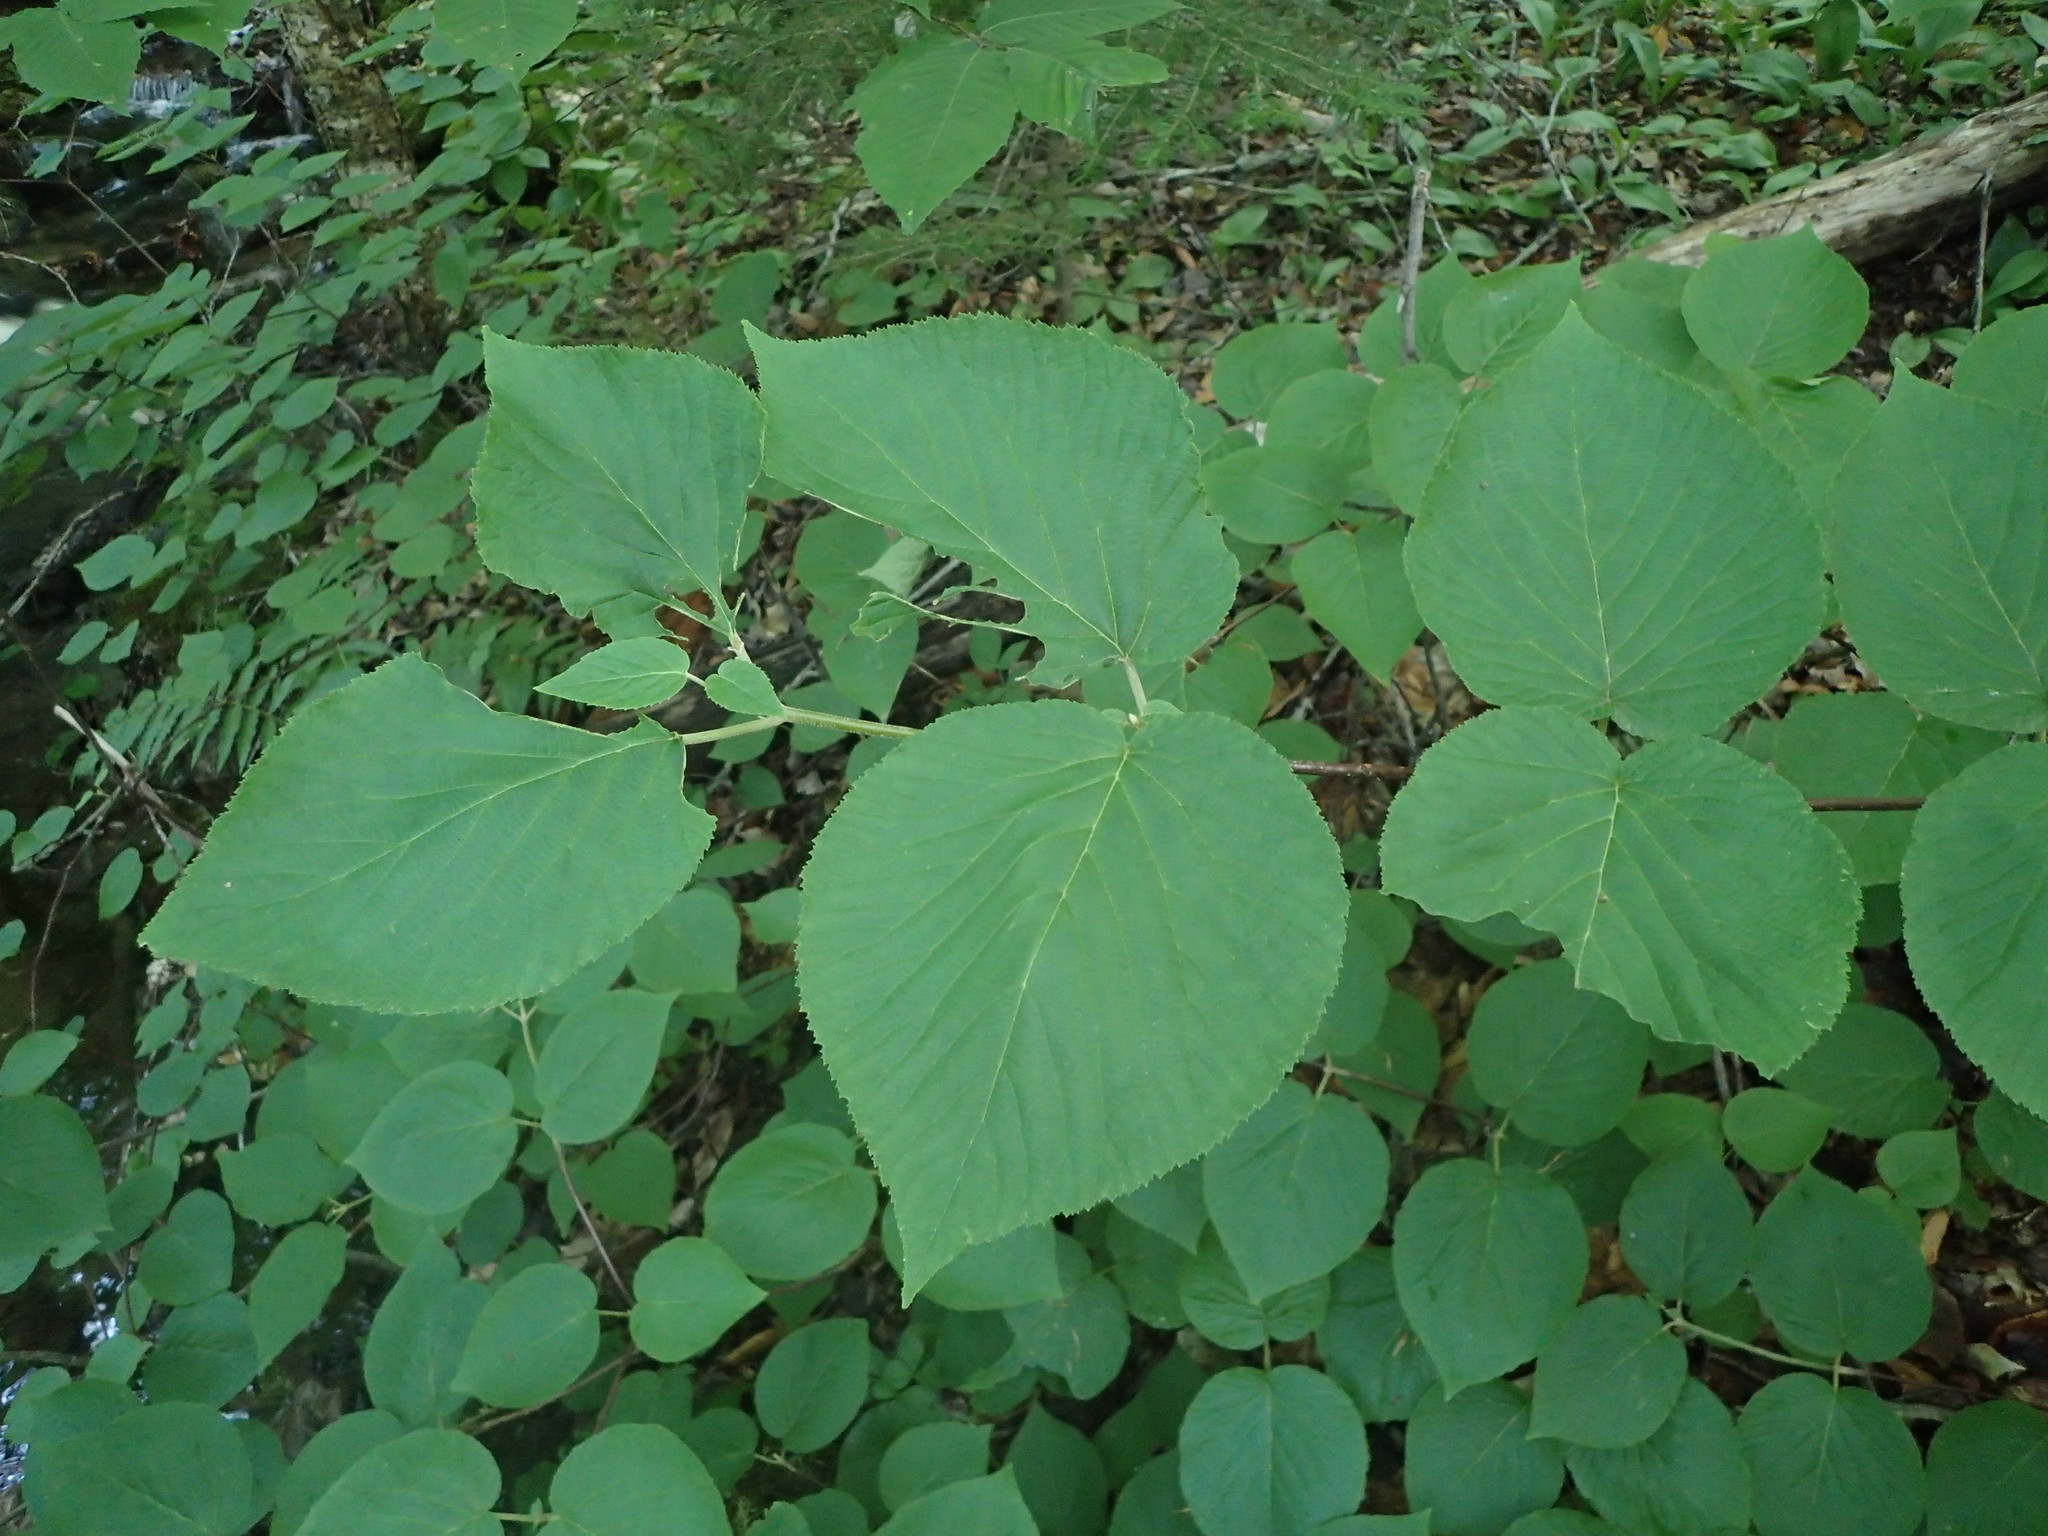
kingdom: Plantae
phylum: Tracheophyta
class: Magnoliopsida
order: Dipsacales
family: Viburnaceae
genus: Viburnum
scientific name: Viburnum lantanoides
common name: Hobblebush
